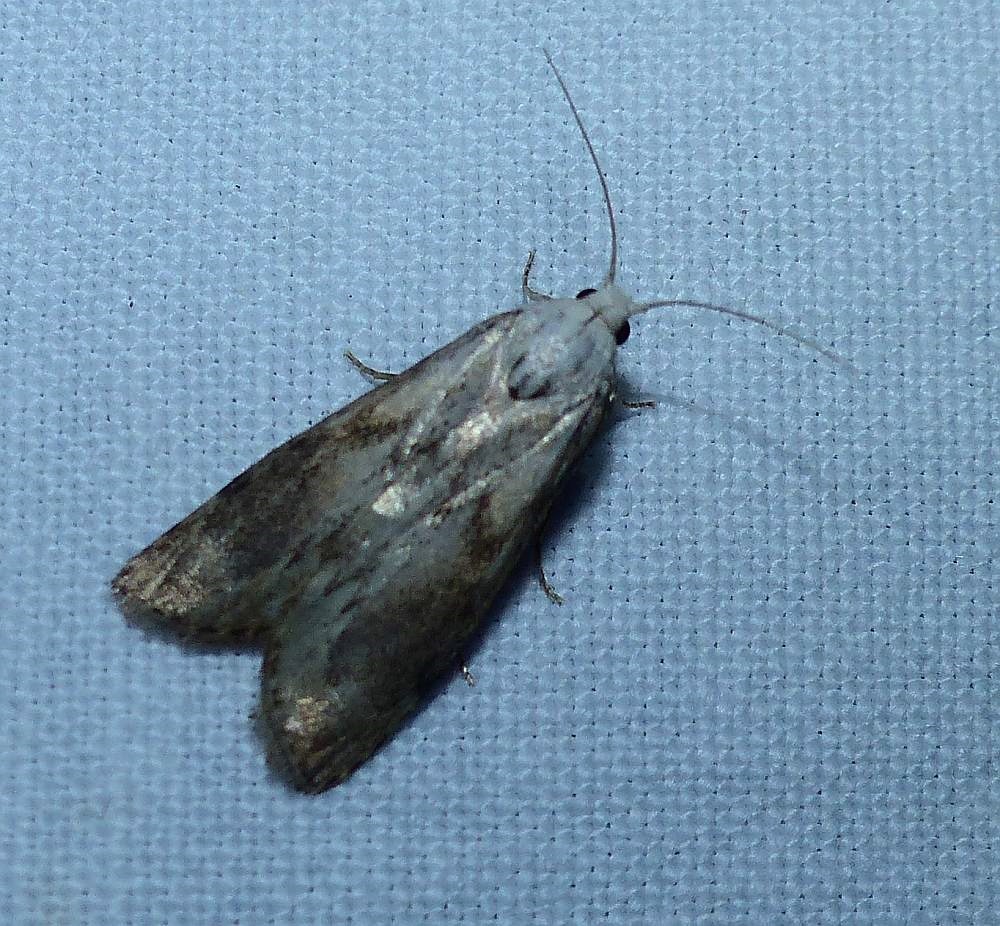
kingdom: Animalia
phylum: Arthropoda
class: Insecta
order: Lepidoptera
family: Pyralidae
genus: Aphomia
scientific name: Aphomia sociella
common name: Bee moth
